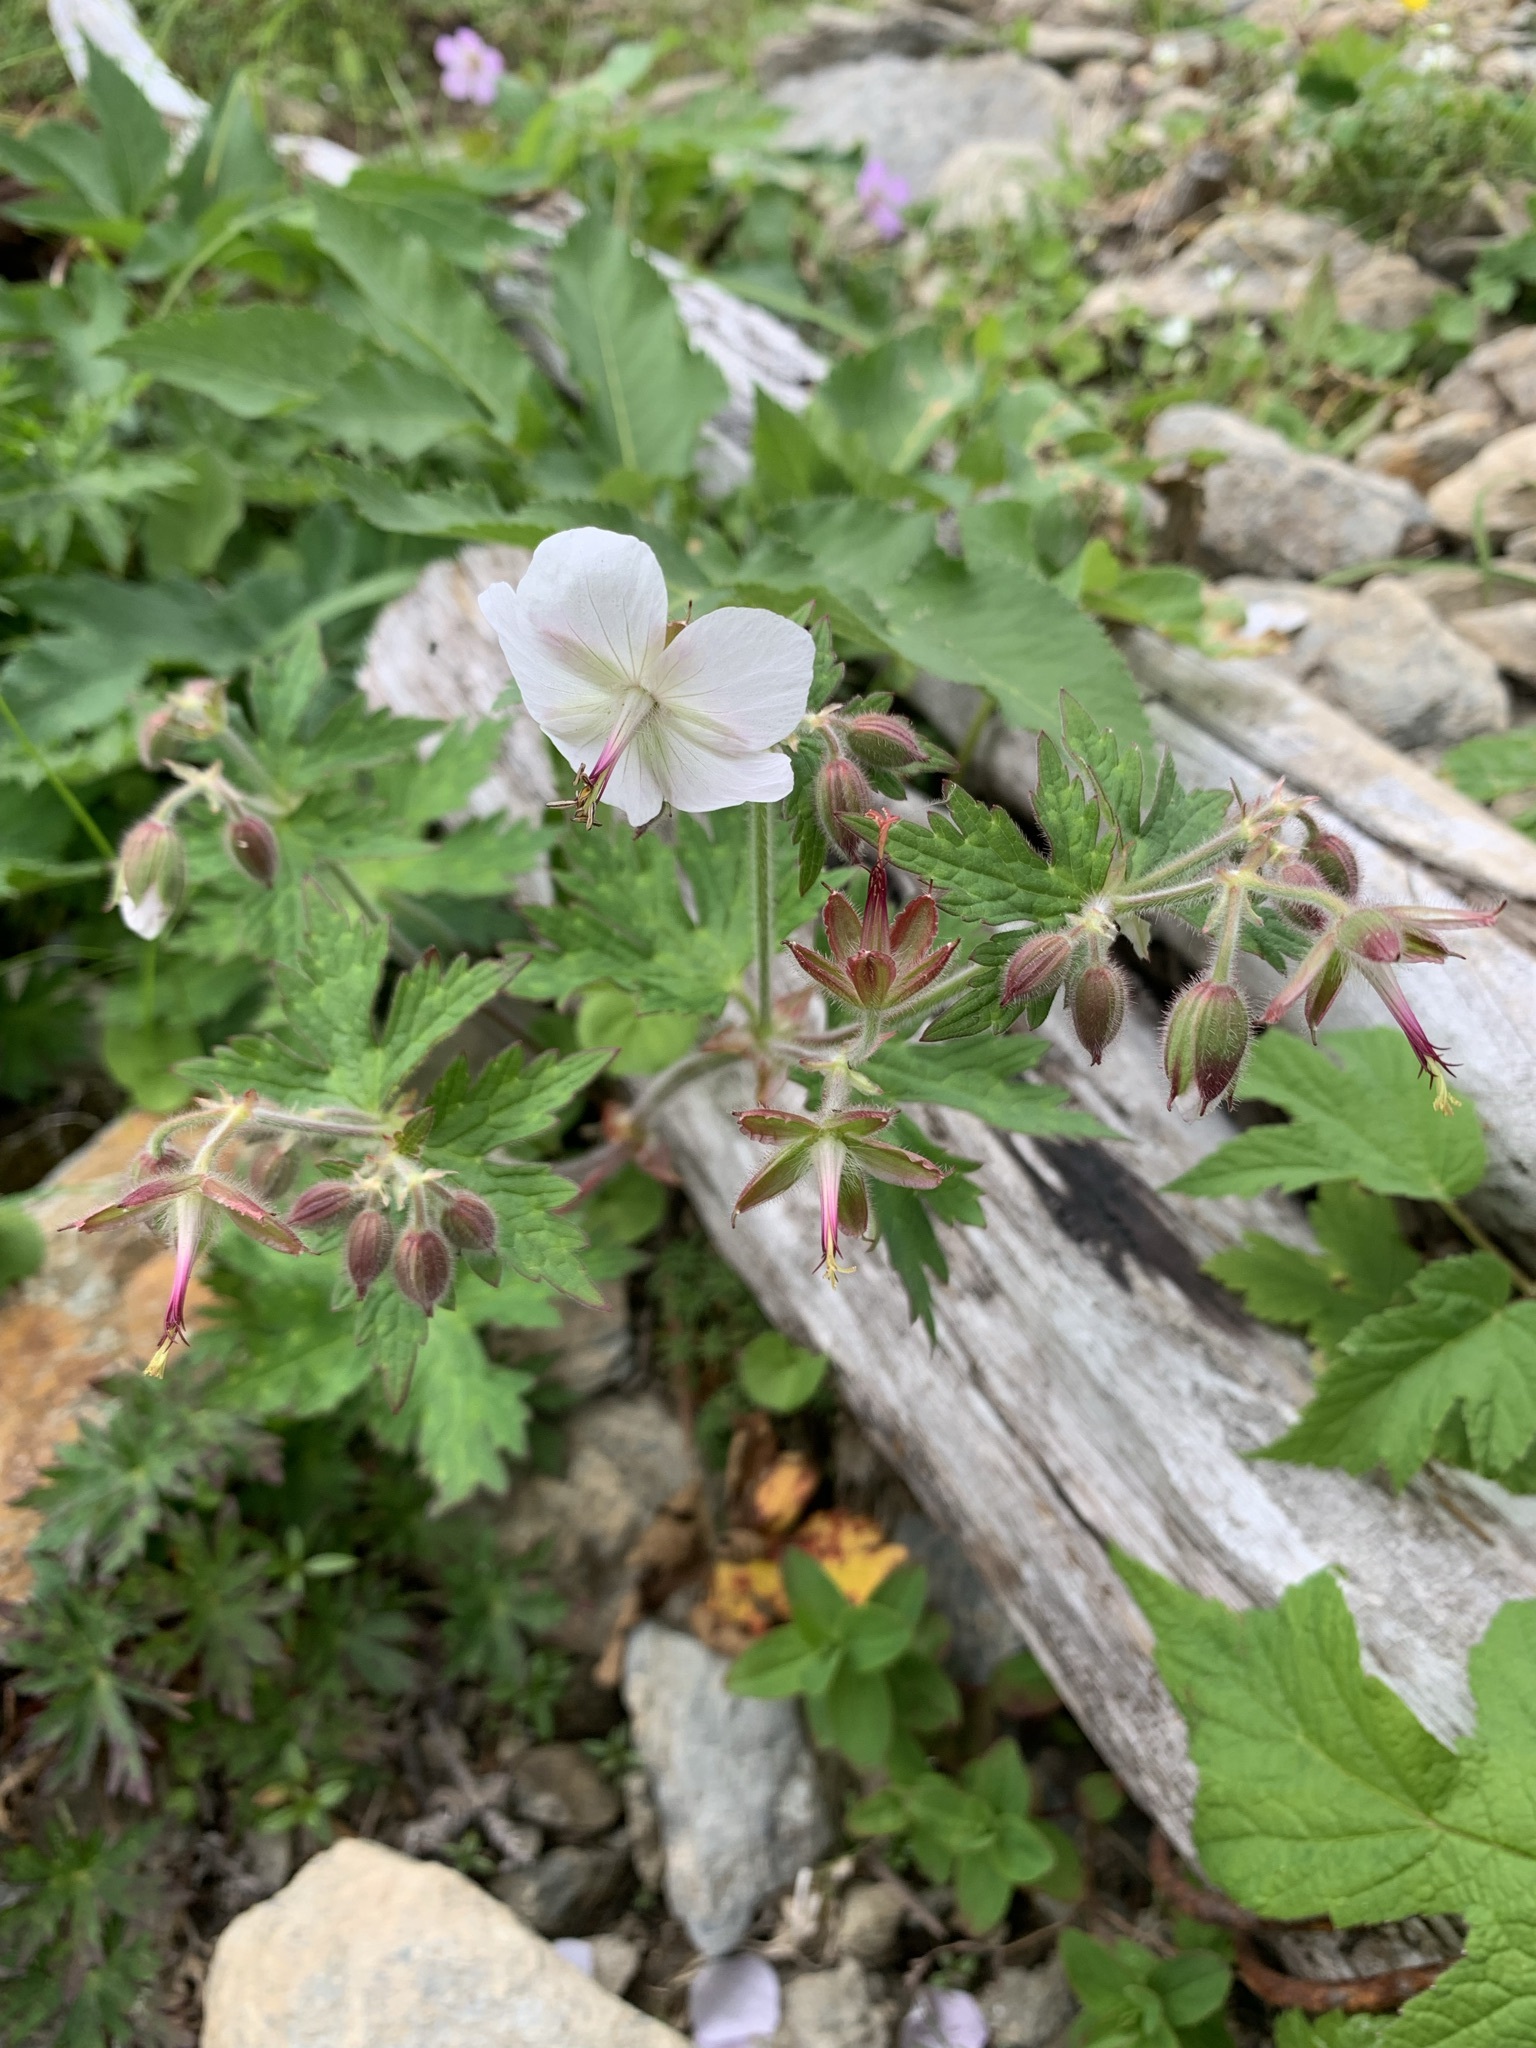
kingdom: Plantae
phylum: Tracheophyta
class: Magnoliopsida
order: Geraniales
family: Geraniaceae
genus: Geranium
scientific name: Geranium reinii
